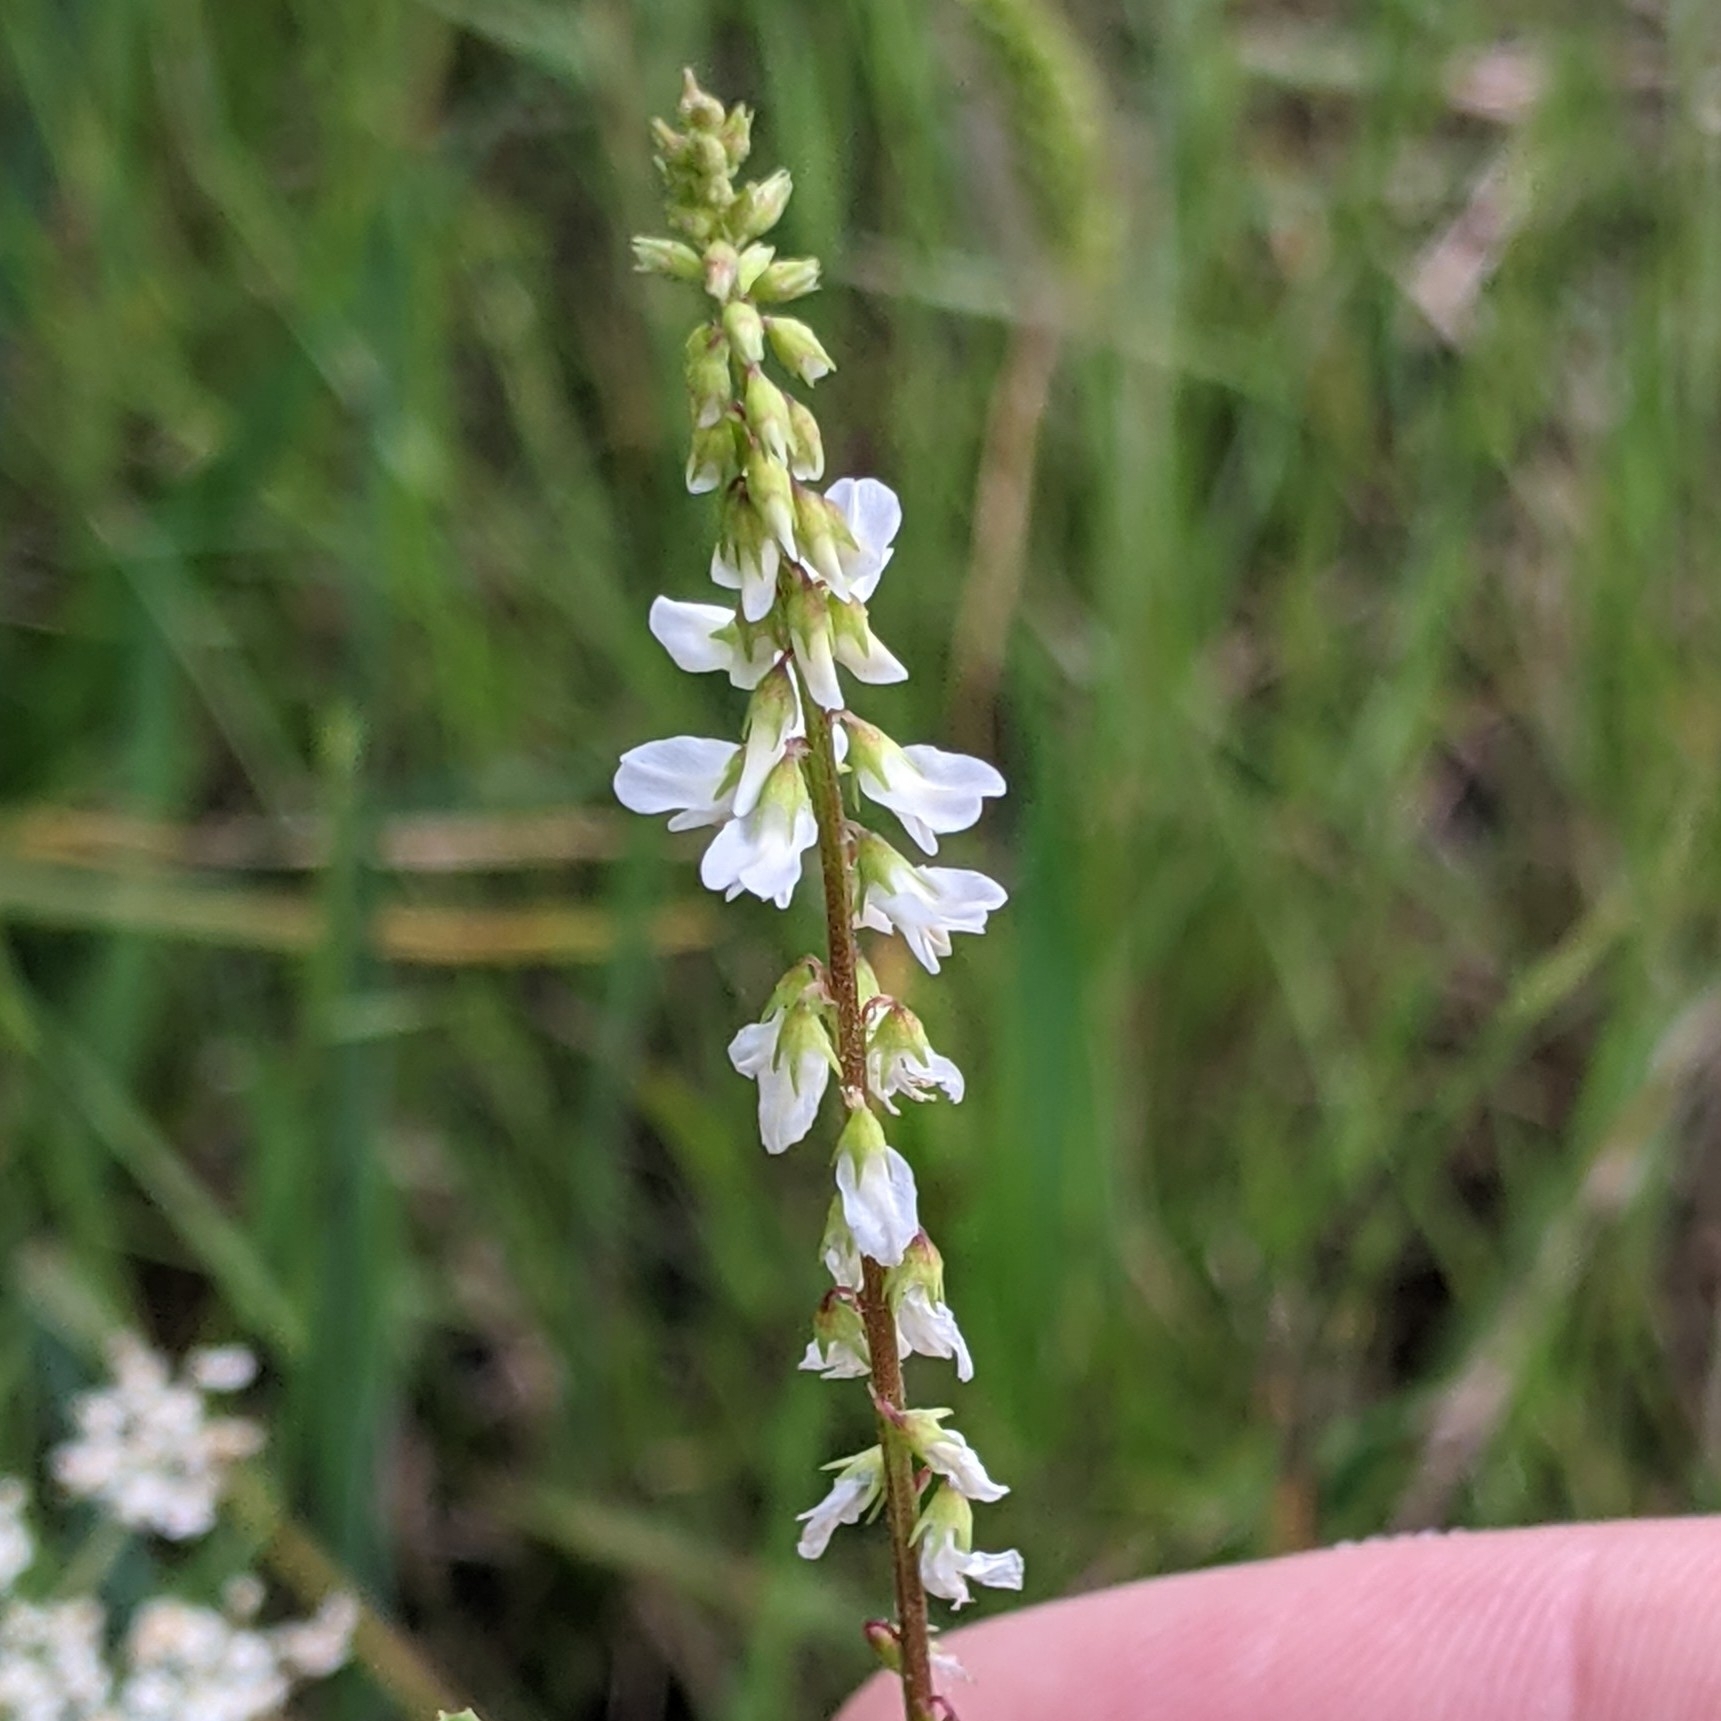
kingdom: Plantae
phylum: Tracheophyta
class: Magnoliopsida
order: Fabales
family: Fabaceae
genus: Melilotus
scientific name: Melilotus albus
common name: White melilot
